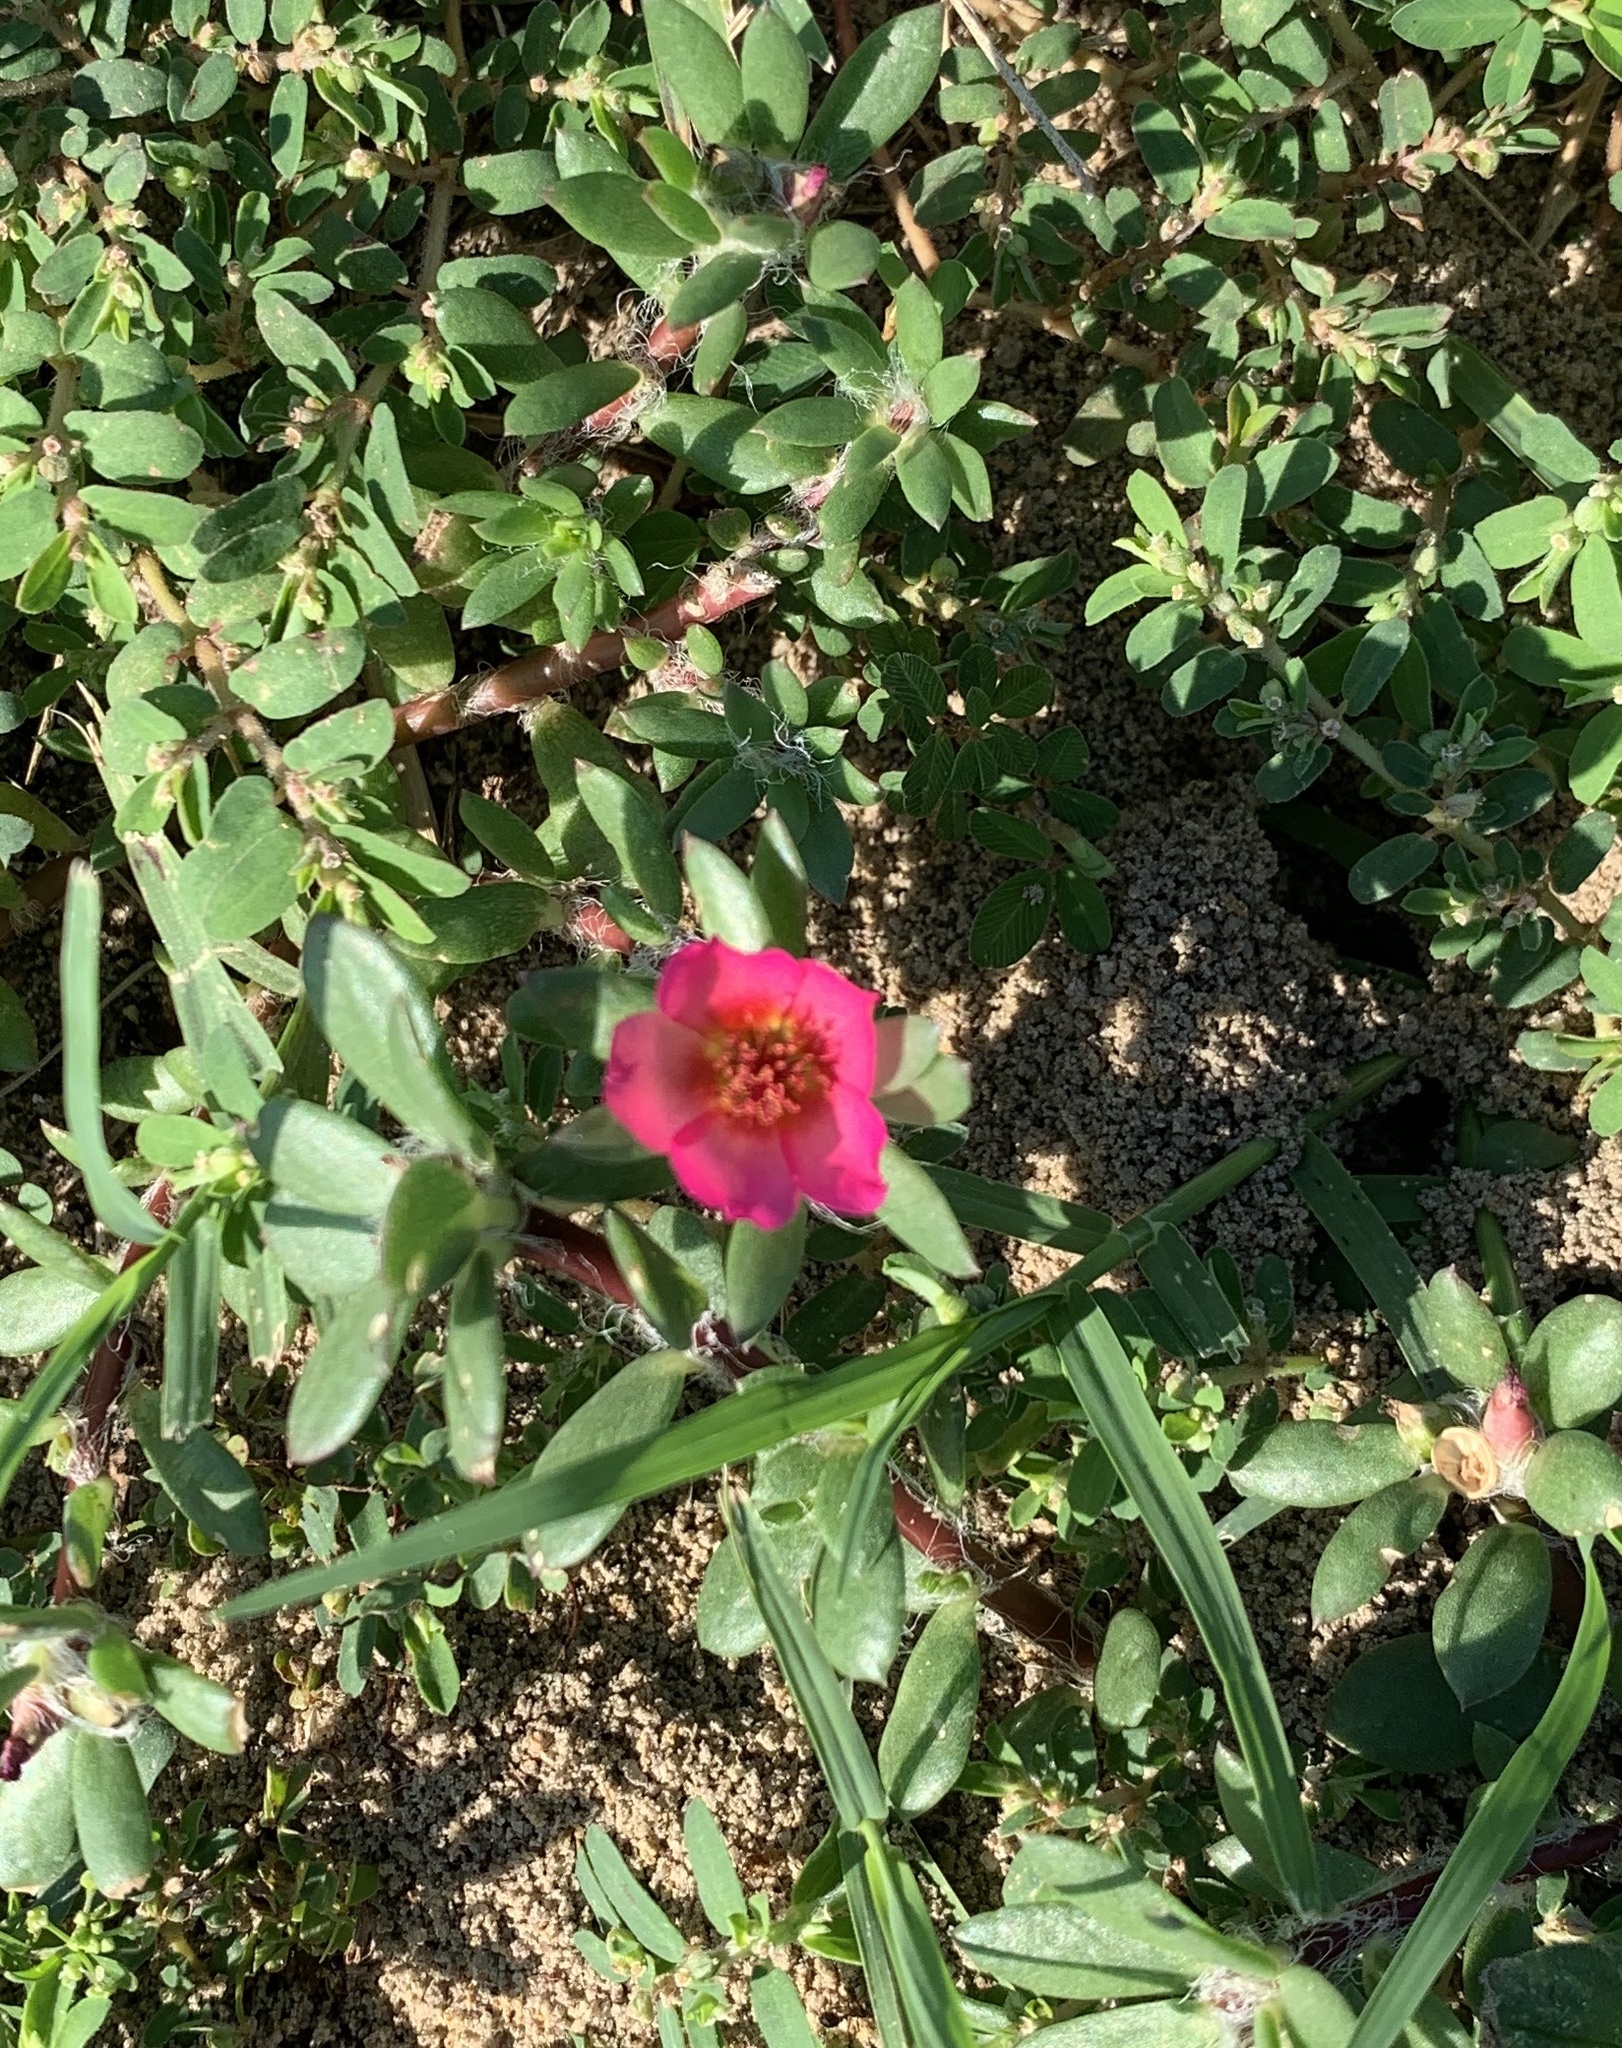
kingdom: Plantae
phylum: Tracheophyta
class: Magnoliopsida
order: Caryophyllales
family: Portulacaceae
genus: Portulaca
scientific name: Portulaca amilis
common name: Paraguayan purslane
